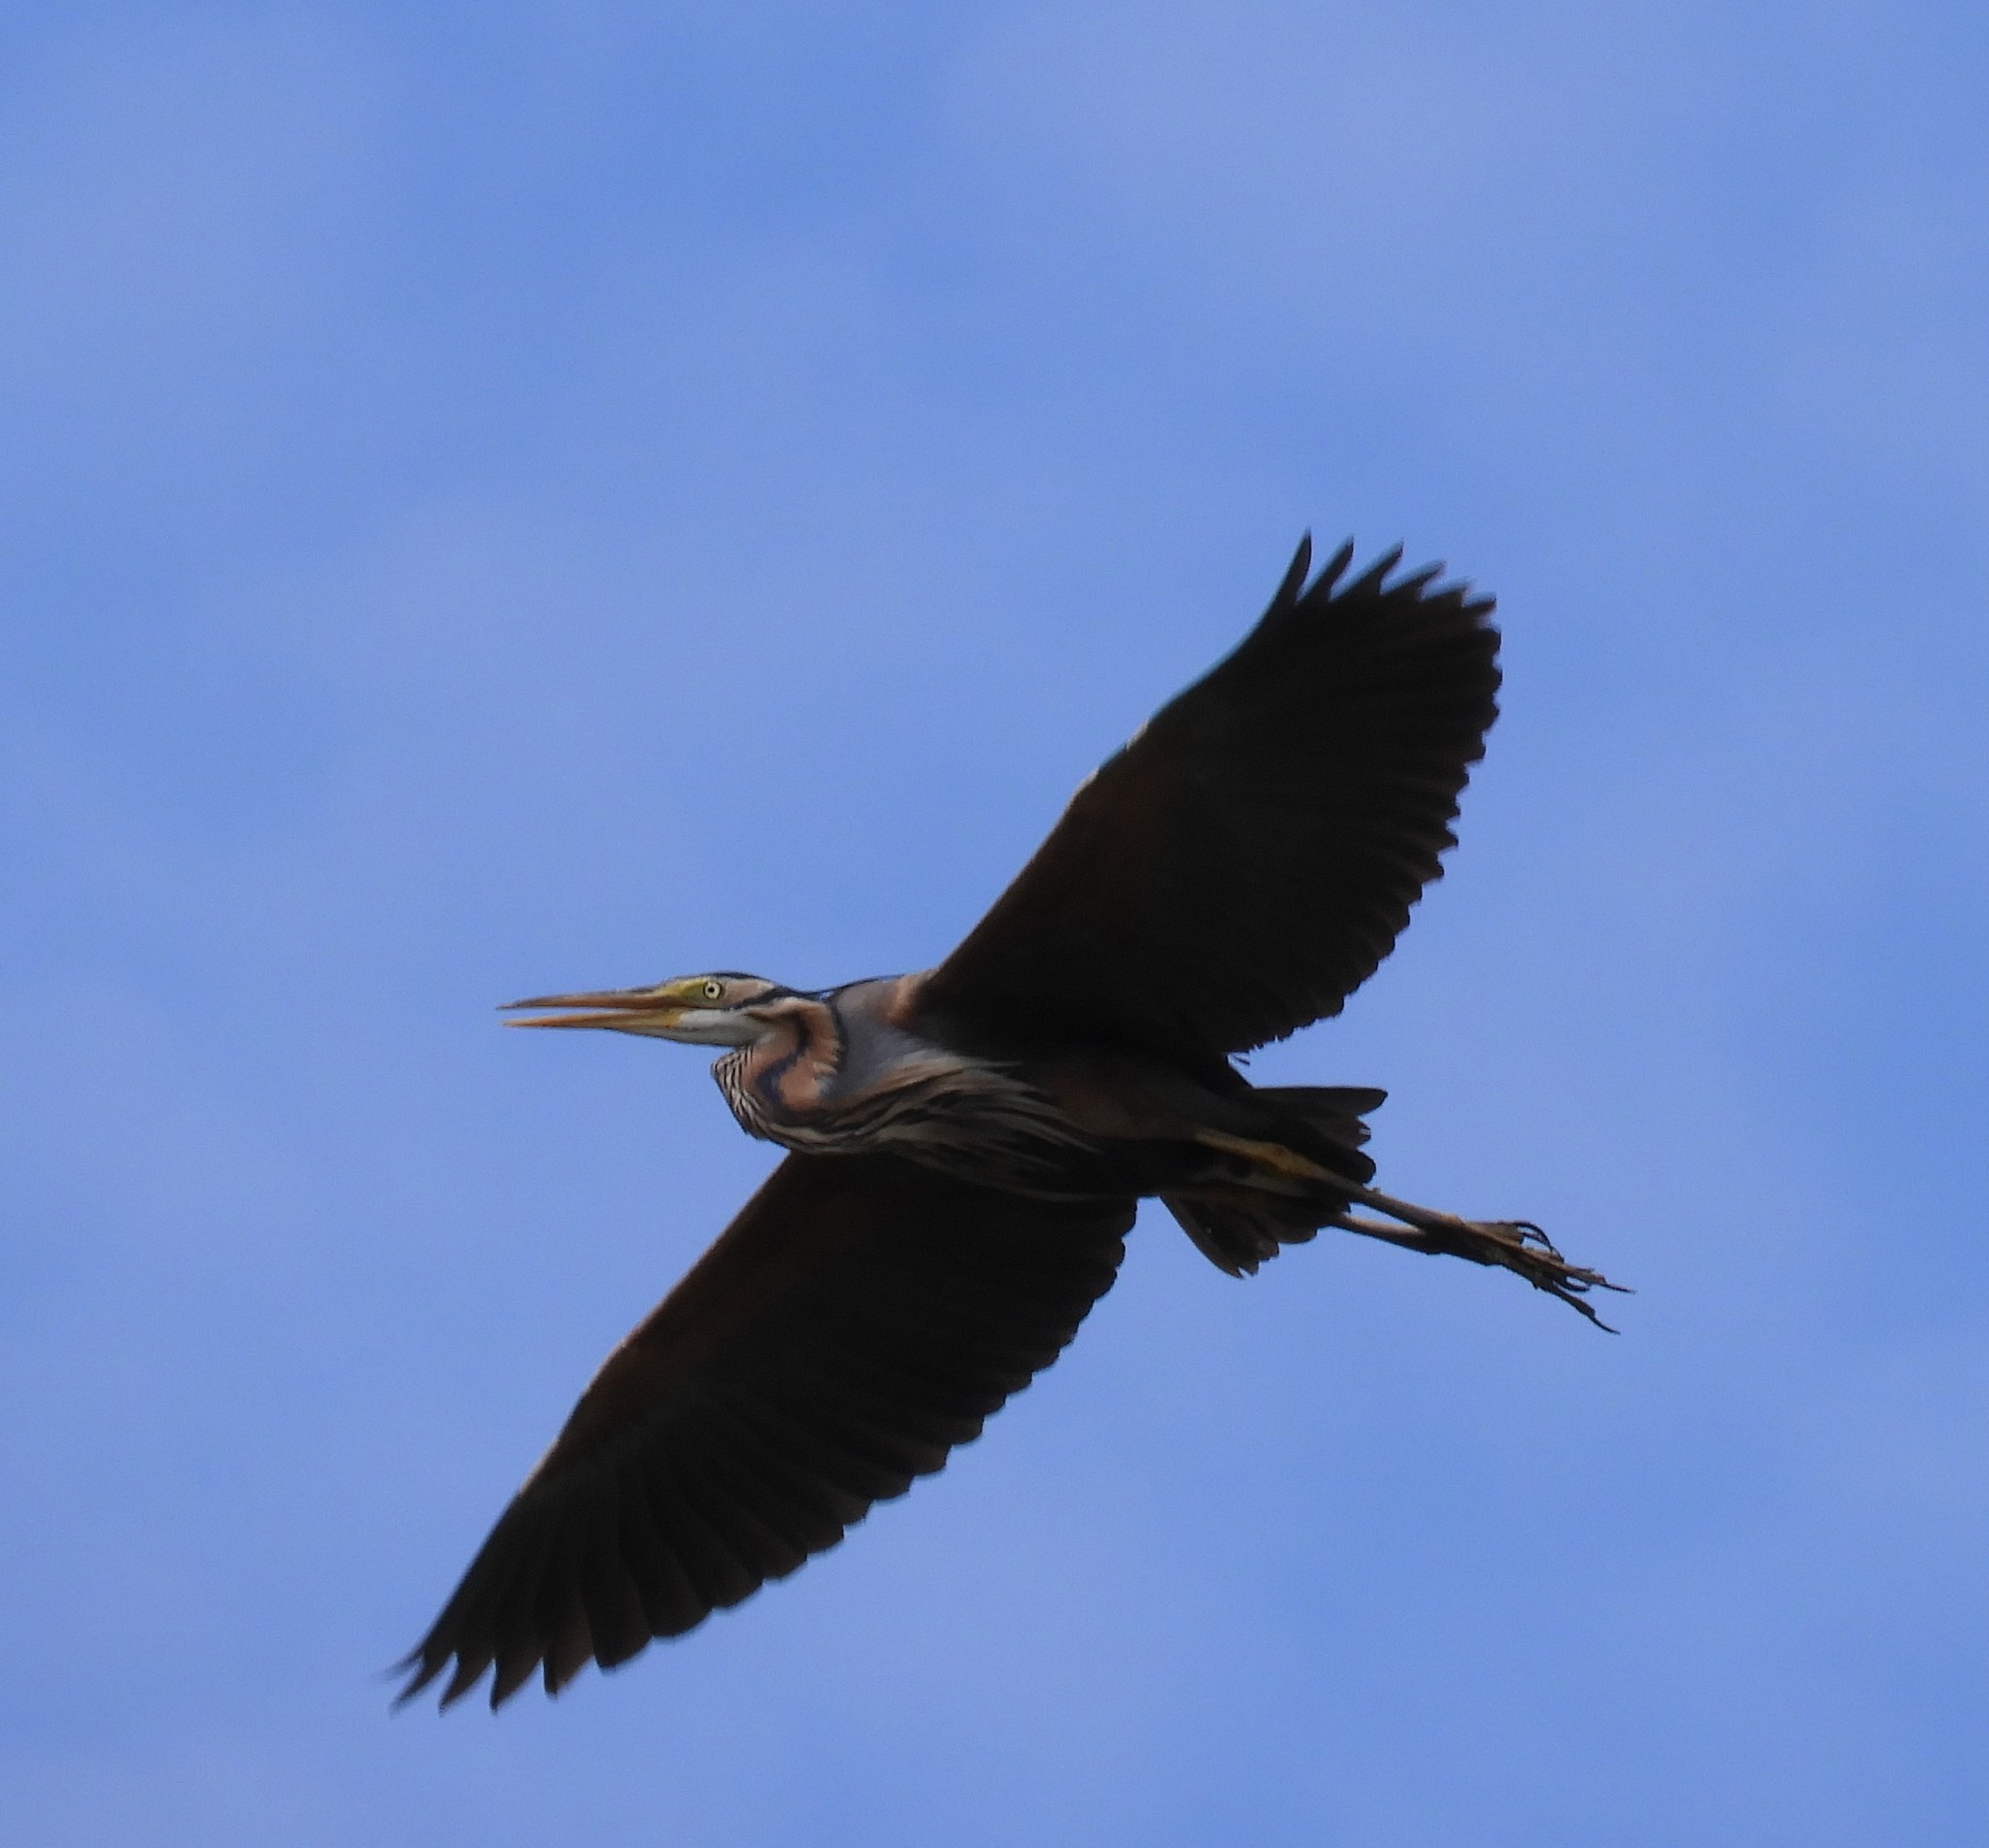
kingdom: Animalia
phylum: Chordata
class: Aves
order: Pelecaniformes
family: Ardeidae
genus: Ardea
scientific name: Ardea purpurea
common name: Purple heron
